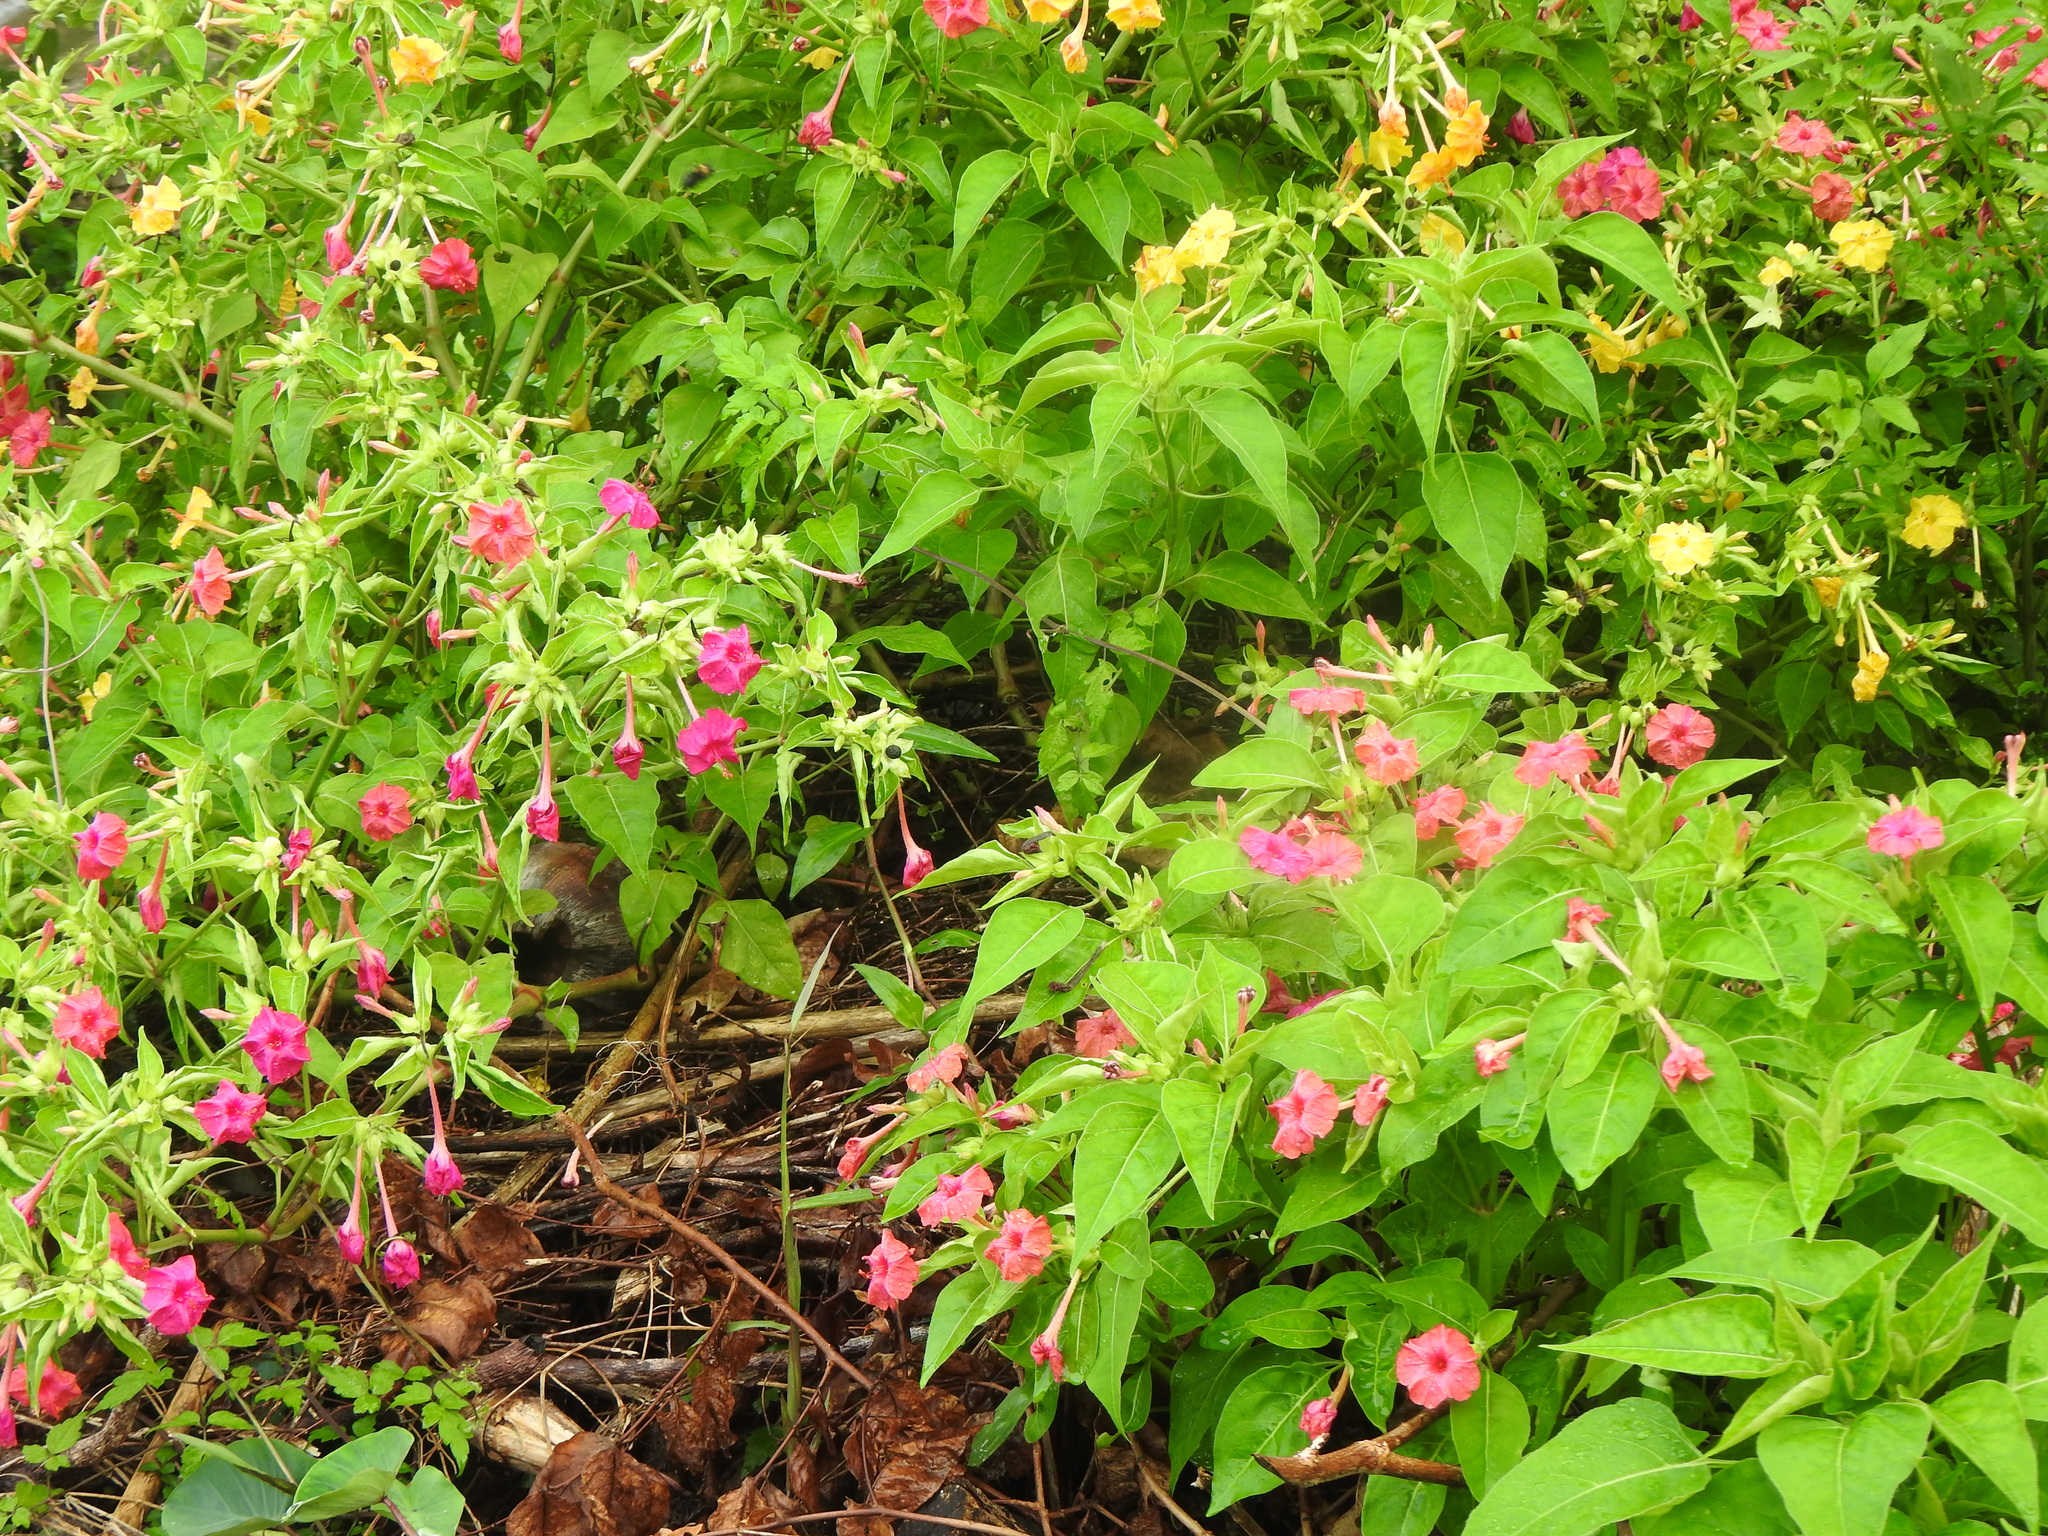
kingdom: Plantae
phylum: Tracheophyta
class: Magnoliopsida
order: Caryophyllales
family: Nyctaginaceae
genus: Mirabilis
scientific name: Mirabilis jalapa
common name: Marvel-of-peru
